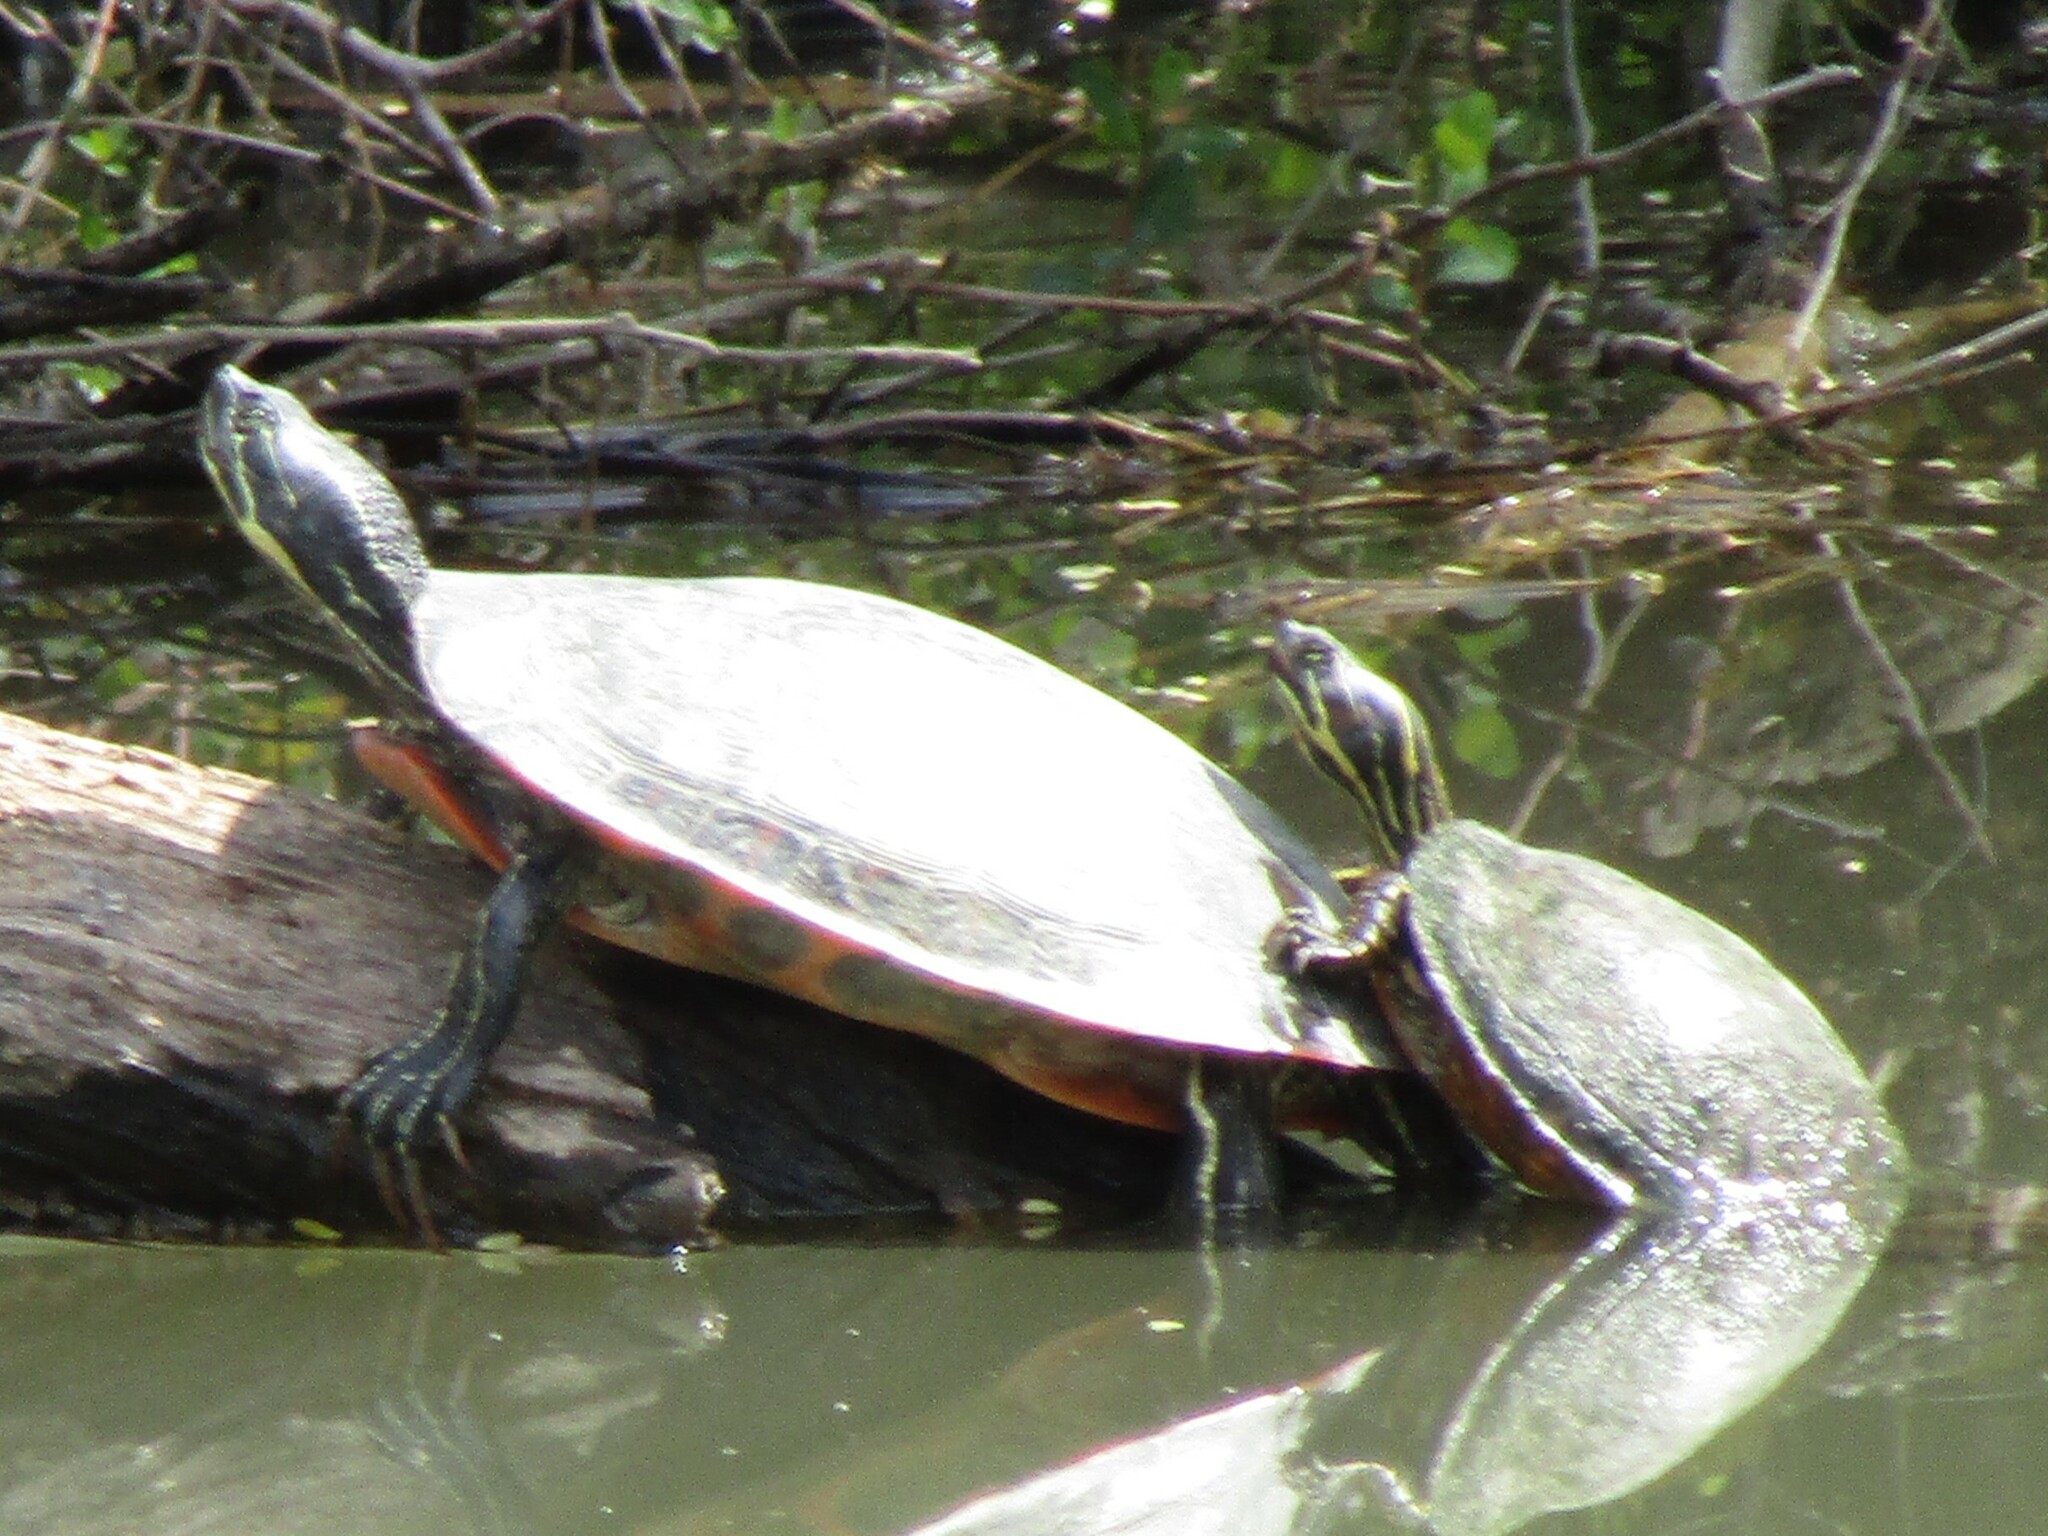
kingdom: Animalia
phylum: Chordata
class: Testudines
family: Emydidae
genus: Pseudemys
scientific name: Pseudemys rubriventris
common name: American red-bellied turtle
